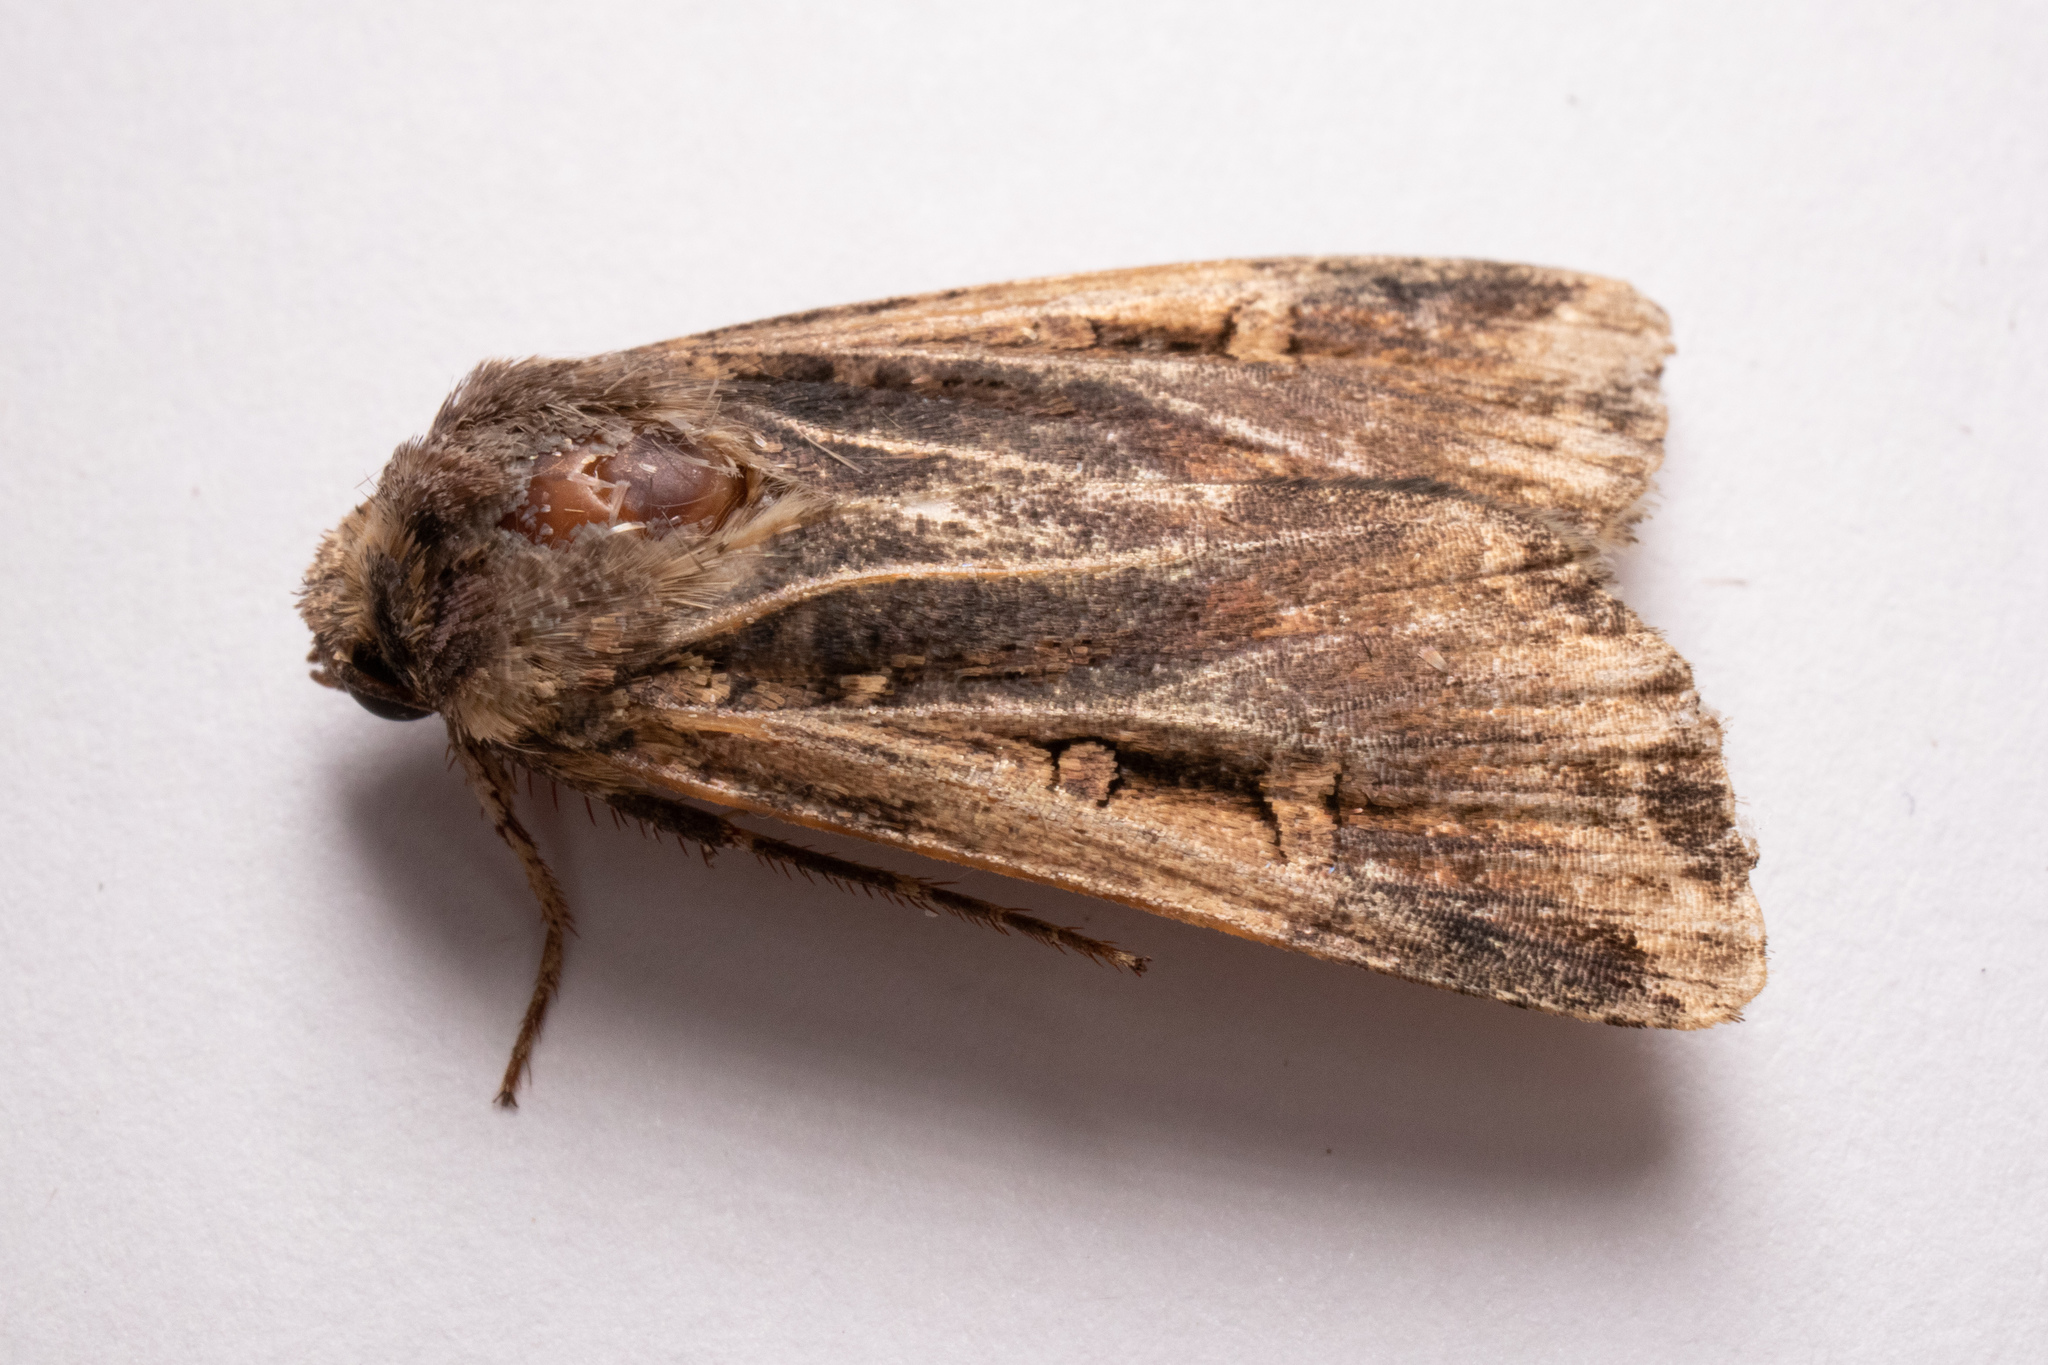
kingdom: Animalia
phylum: Arthropoda
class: Insecta
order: Lepidoptera
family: Noctuidae
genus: Feltia
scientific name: Feltia subterranea
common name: Granulate cutworm
